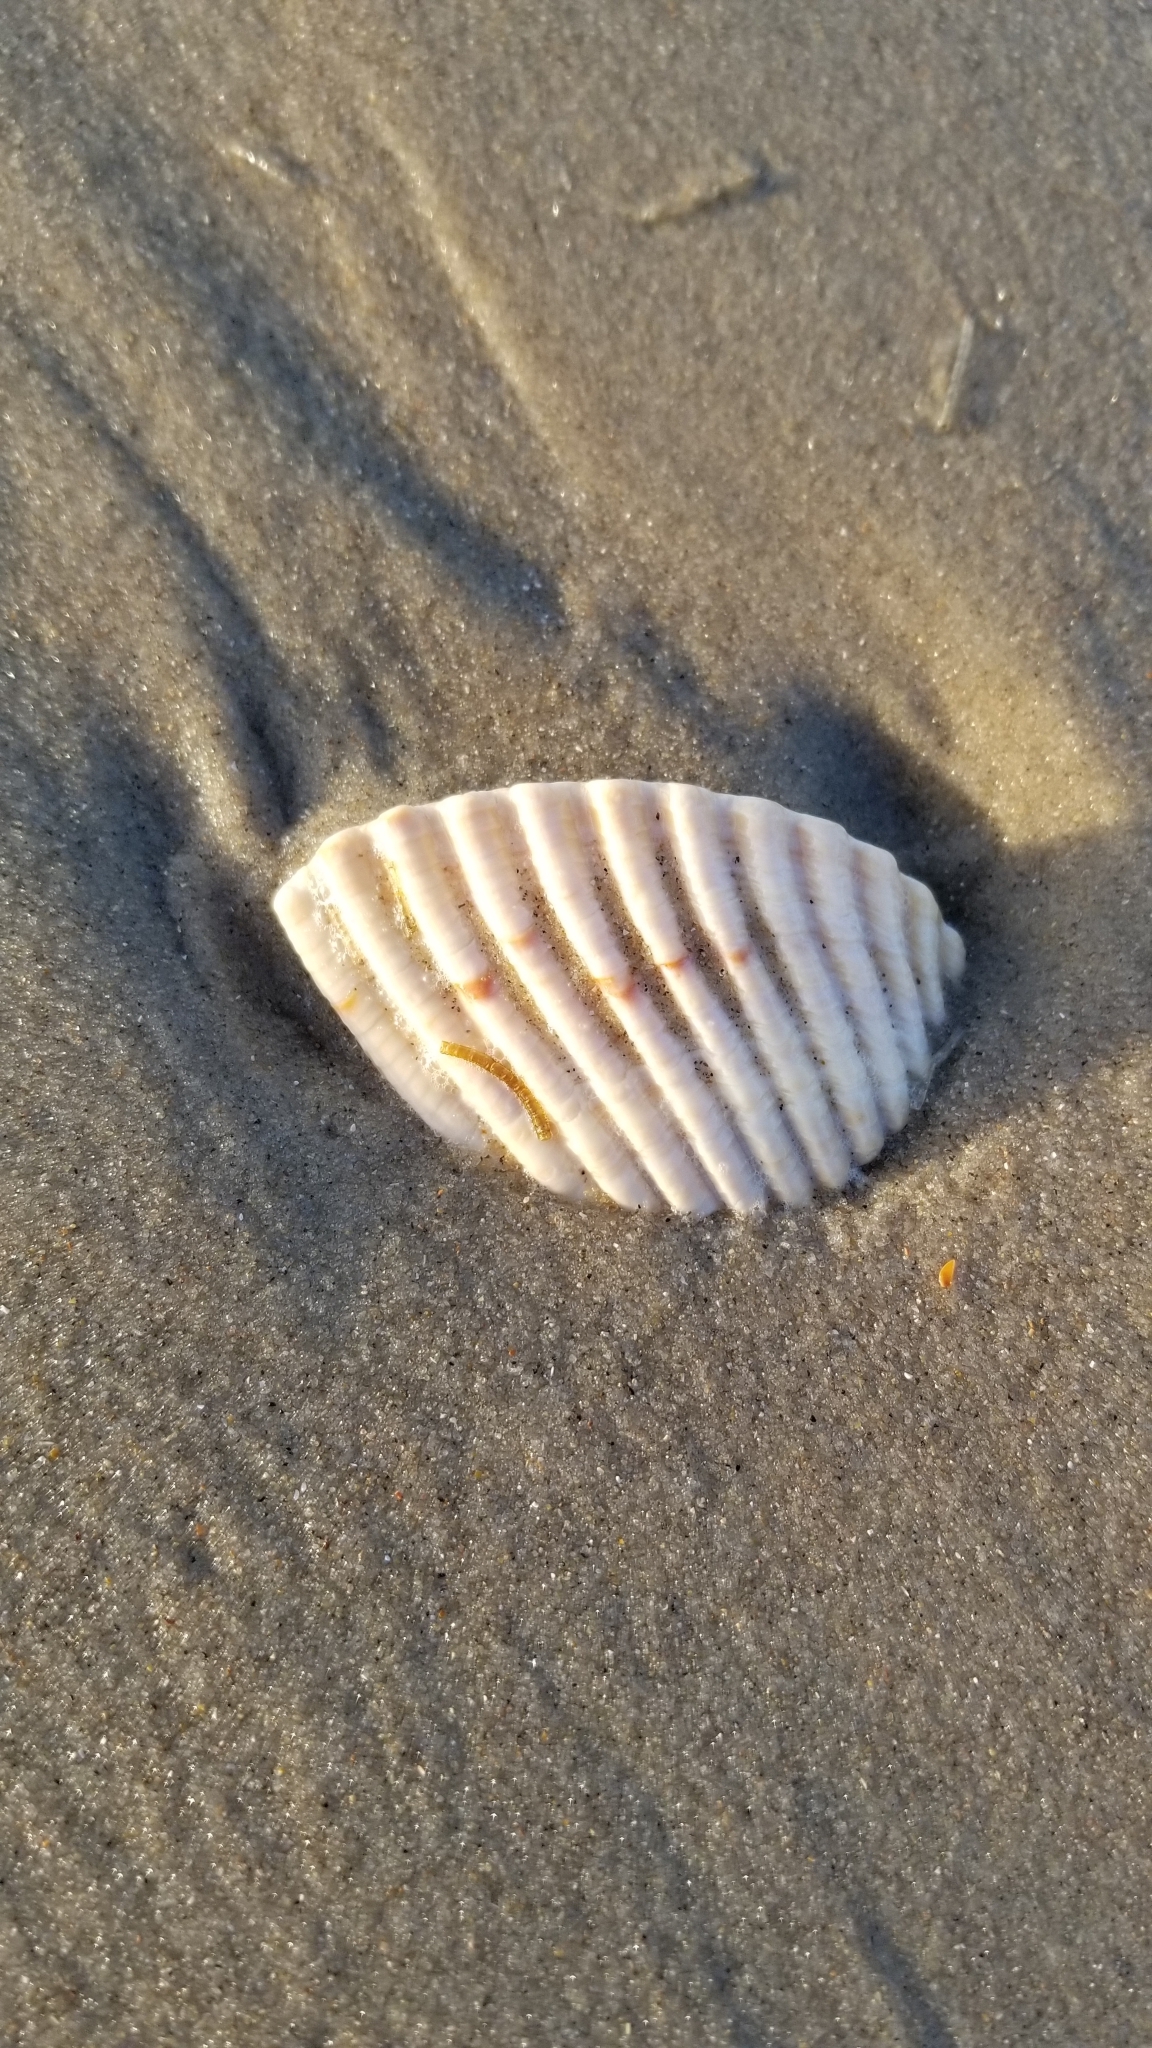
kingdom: Animalia
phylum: Mollusca
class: Bivalvia
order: Cardiida
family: Cardiidae
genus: Dinocardium
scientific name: Dinocardium robustum
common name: Atlantic giant cockle
